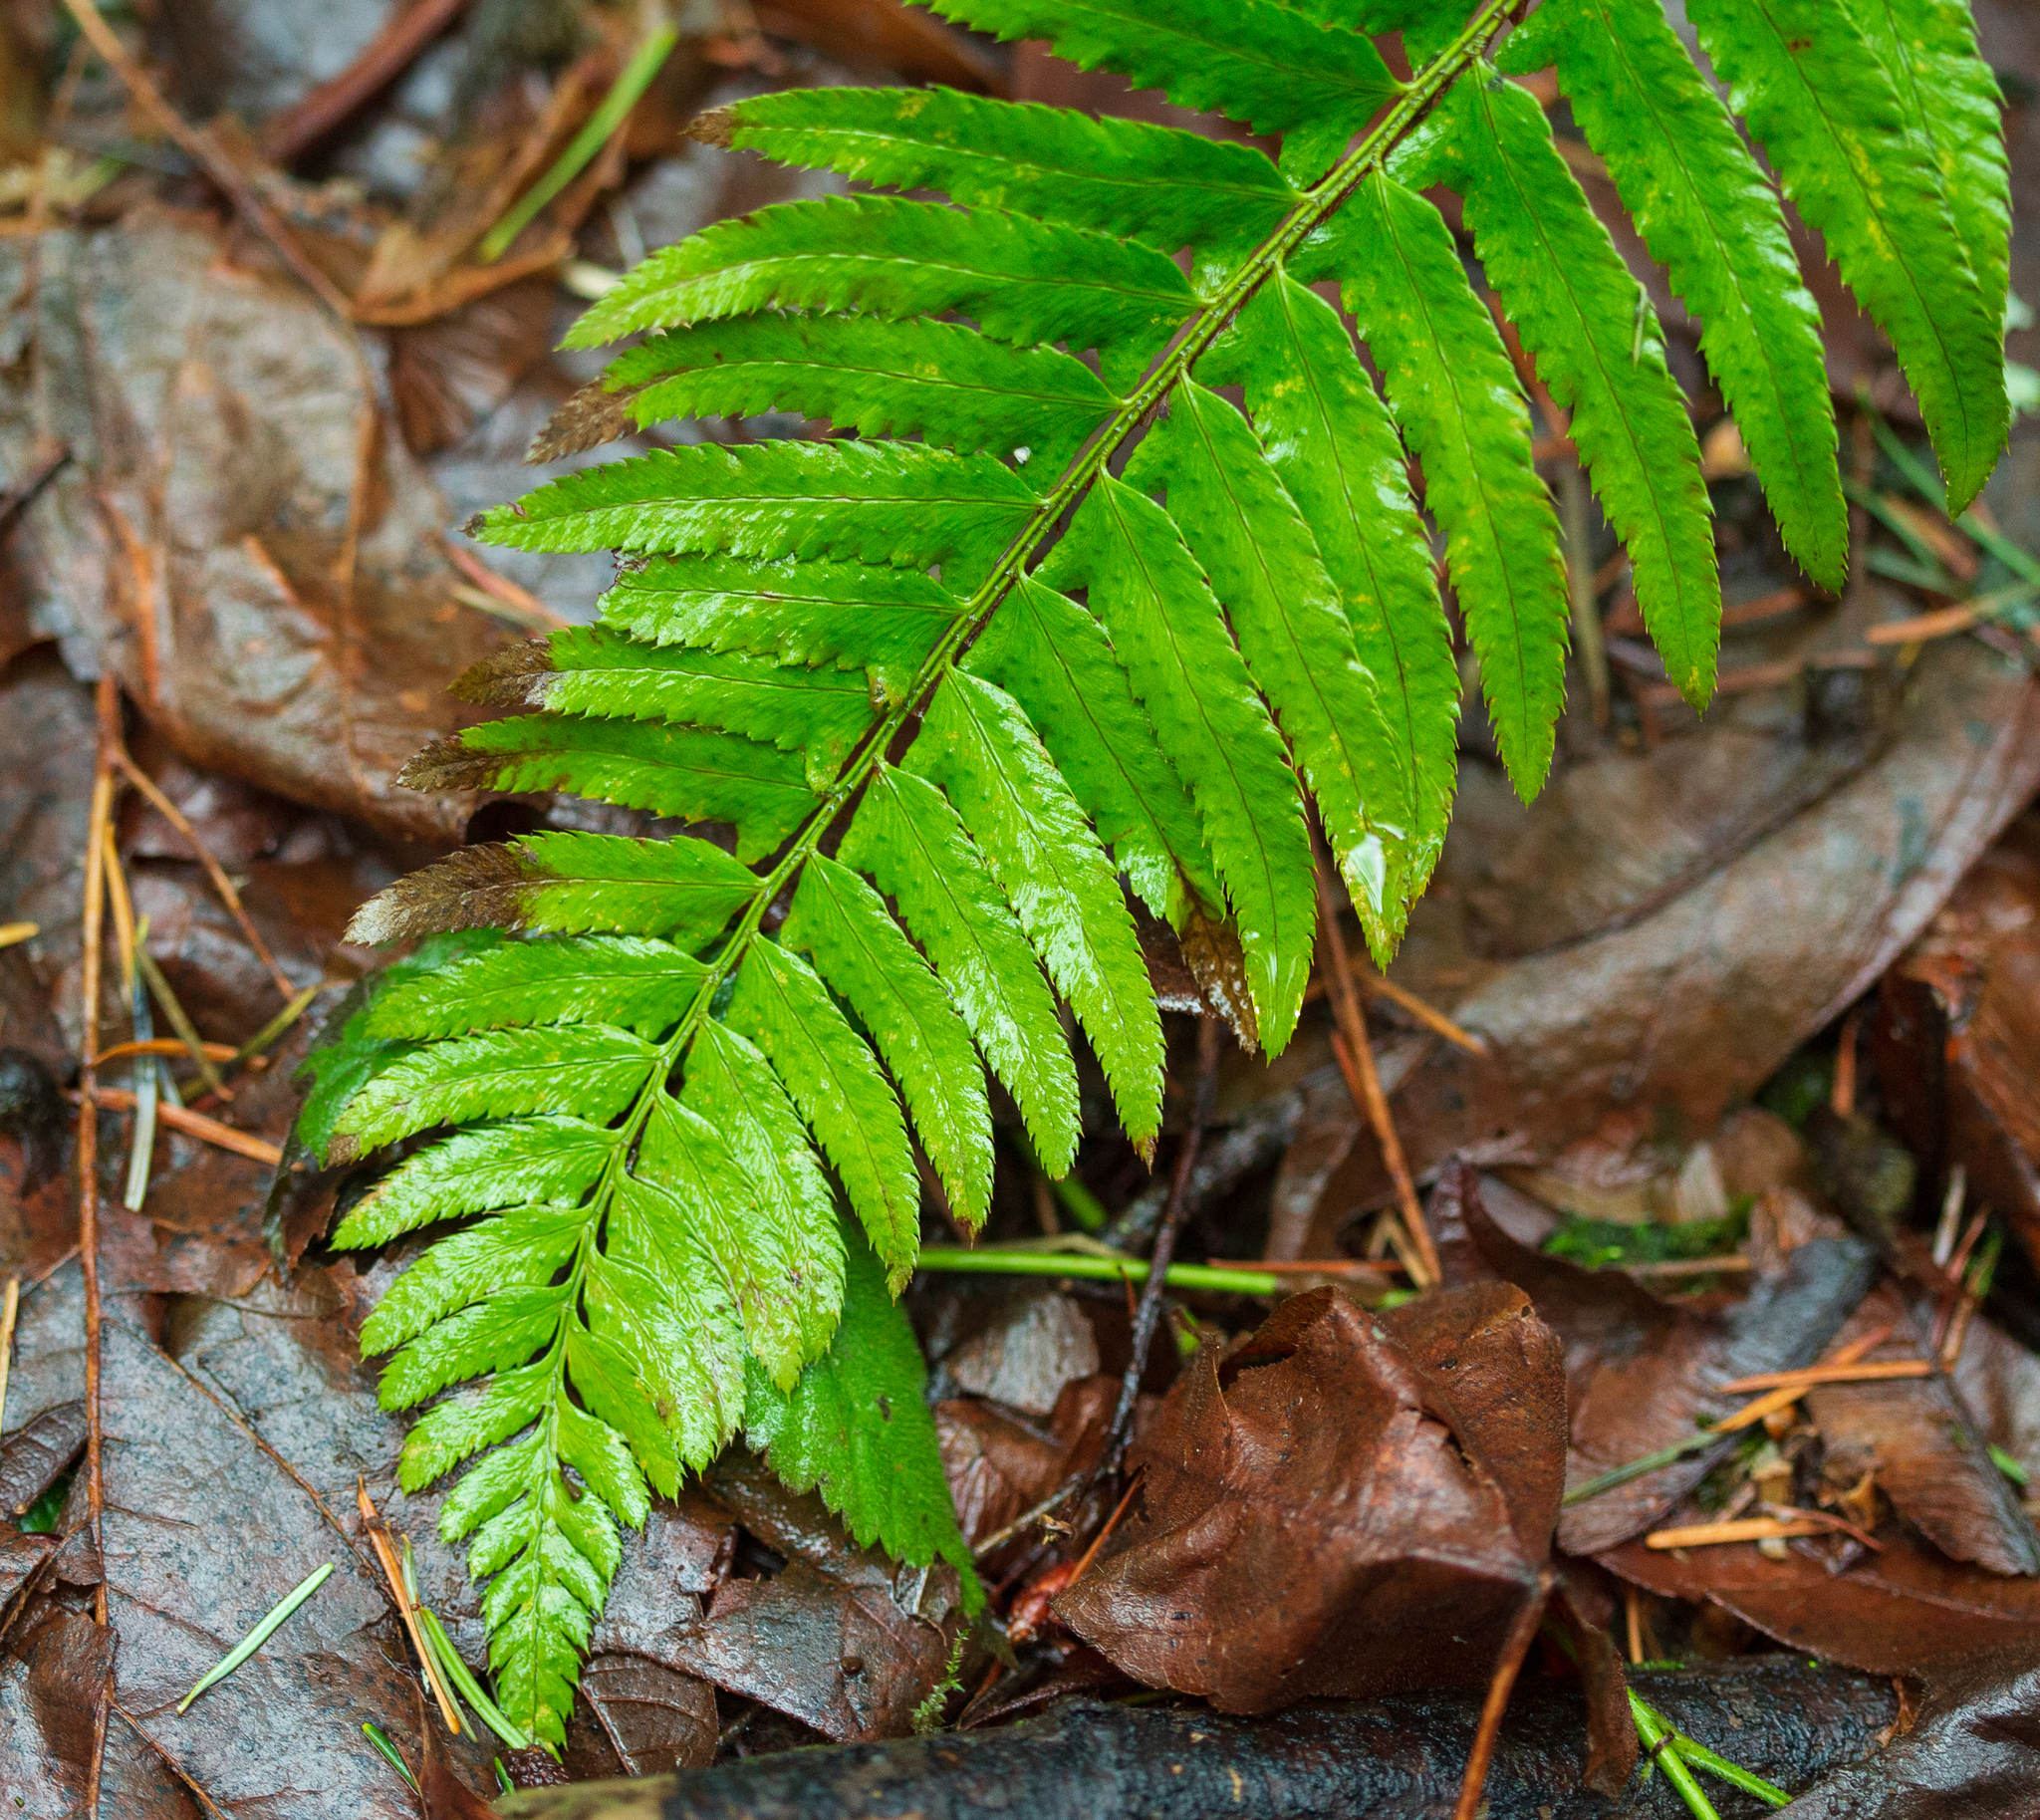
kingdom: Plantae
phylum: Tracheophyta
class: Polypodiopsida
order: Polypodiales
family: Dryopteridaceae
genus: Polystichum
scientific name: Polystichum munitum
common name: Western sword-fern
